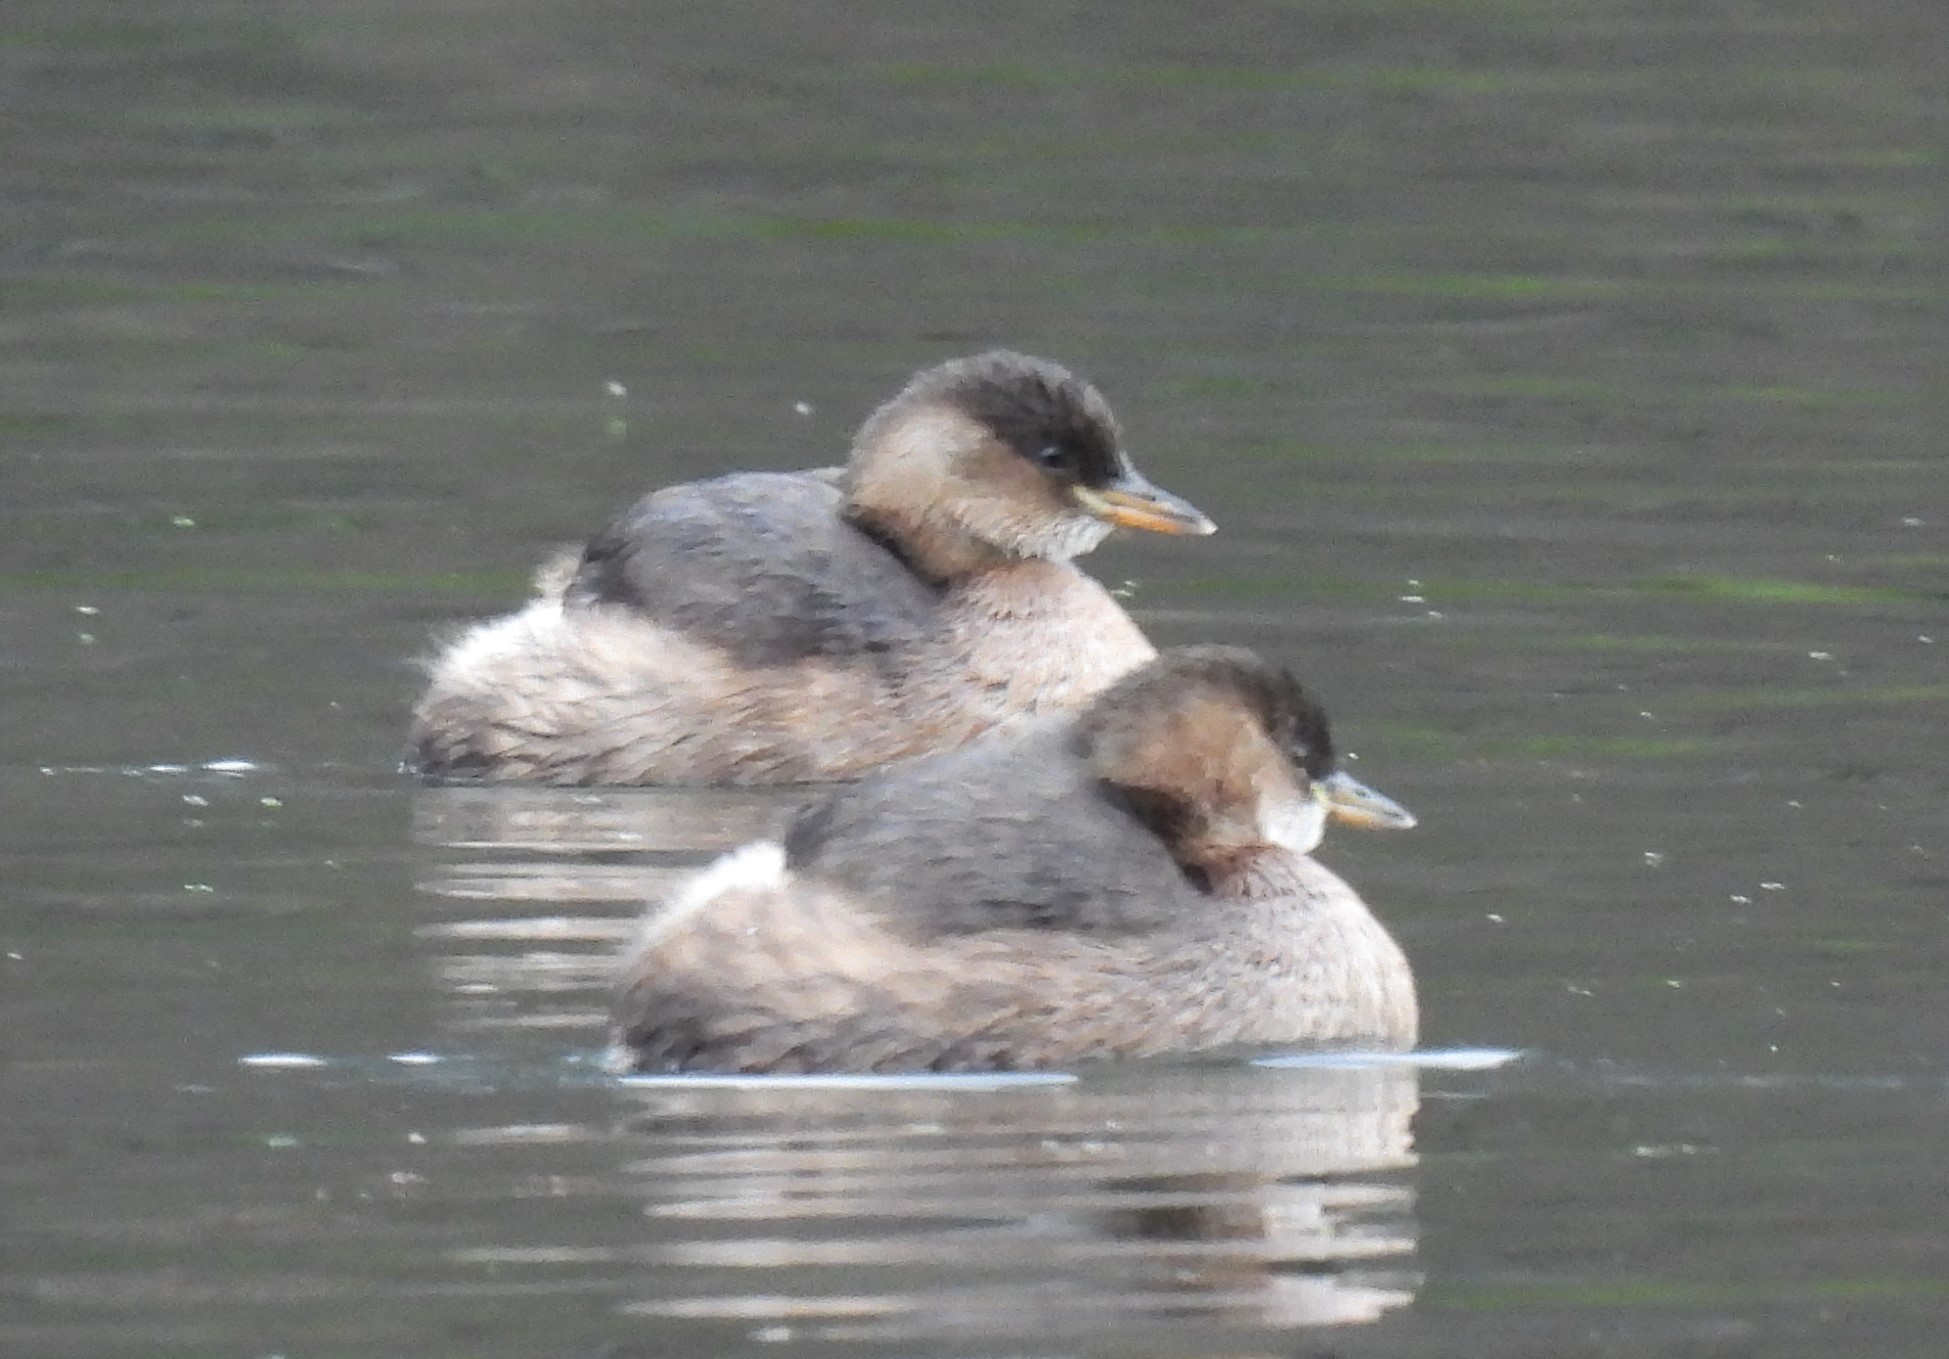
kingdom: Animalia
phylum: Chordata
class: Aves
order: Podicipediformes
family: Podicipedidae
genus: Tachybaptus
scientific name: Tachybaptus ruficollis
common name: Little grebe
